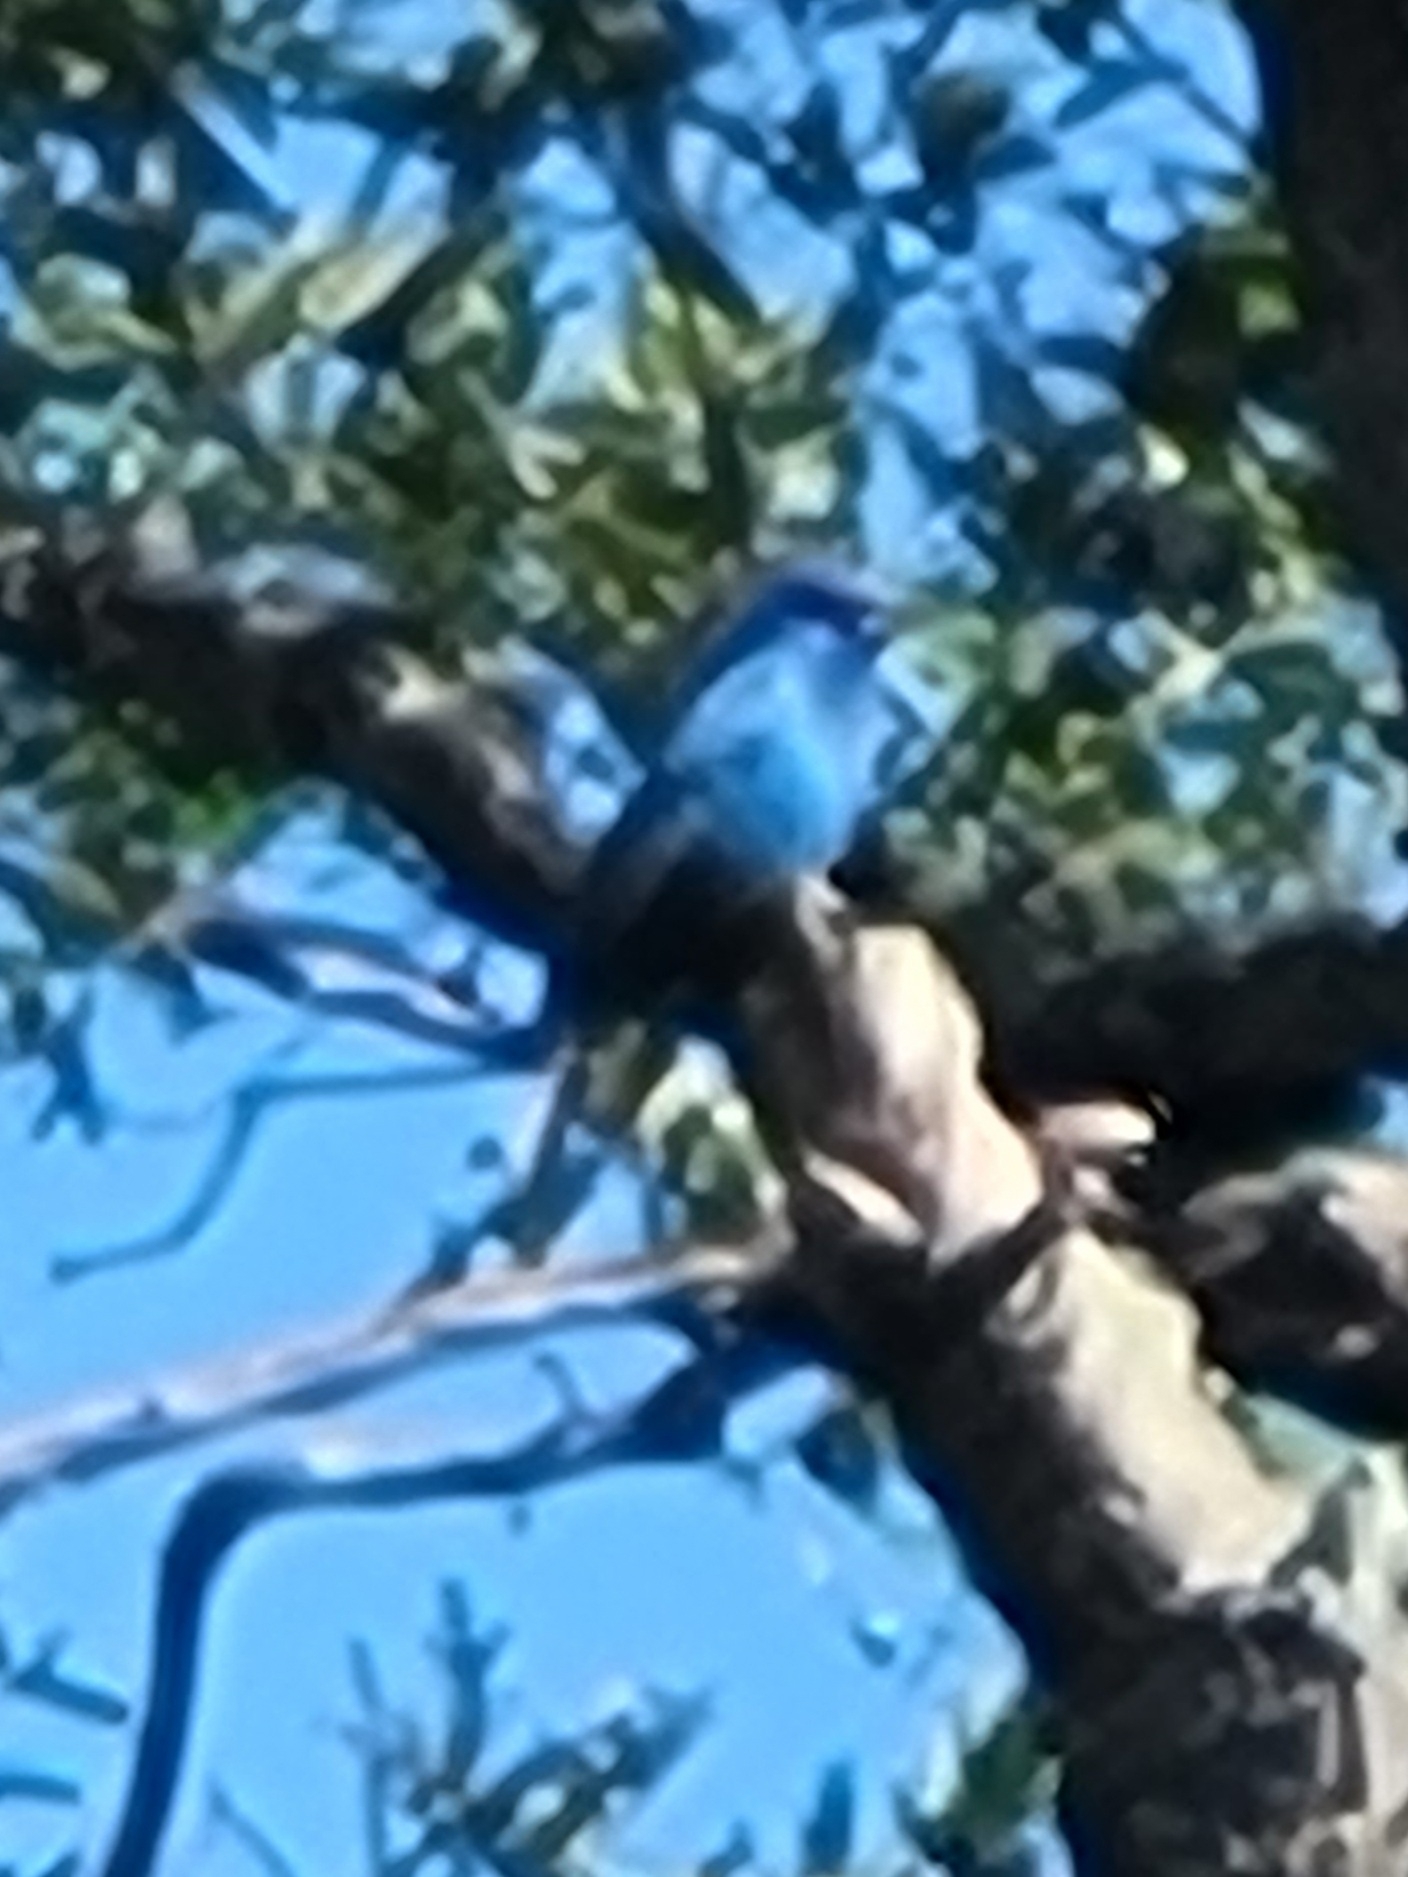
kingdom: Animalia
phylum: Chordata
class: Aves
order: Passeriformes
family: Cardinalidae
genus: Passerina
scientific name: Passerina cyanea
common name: Indigo bunting
